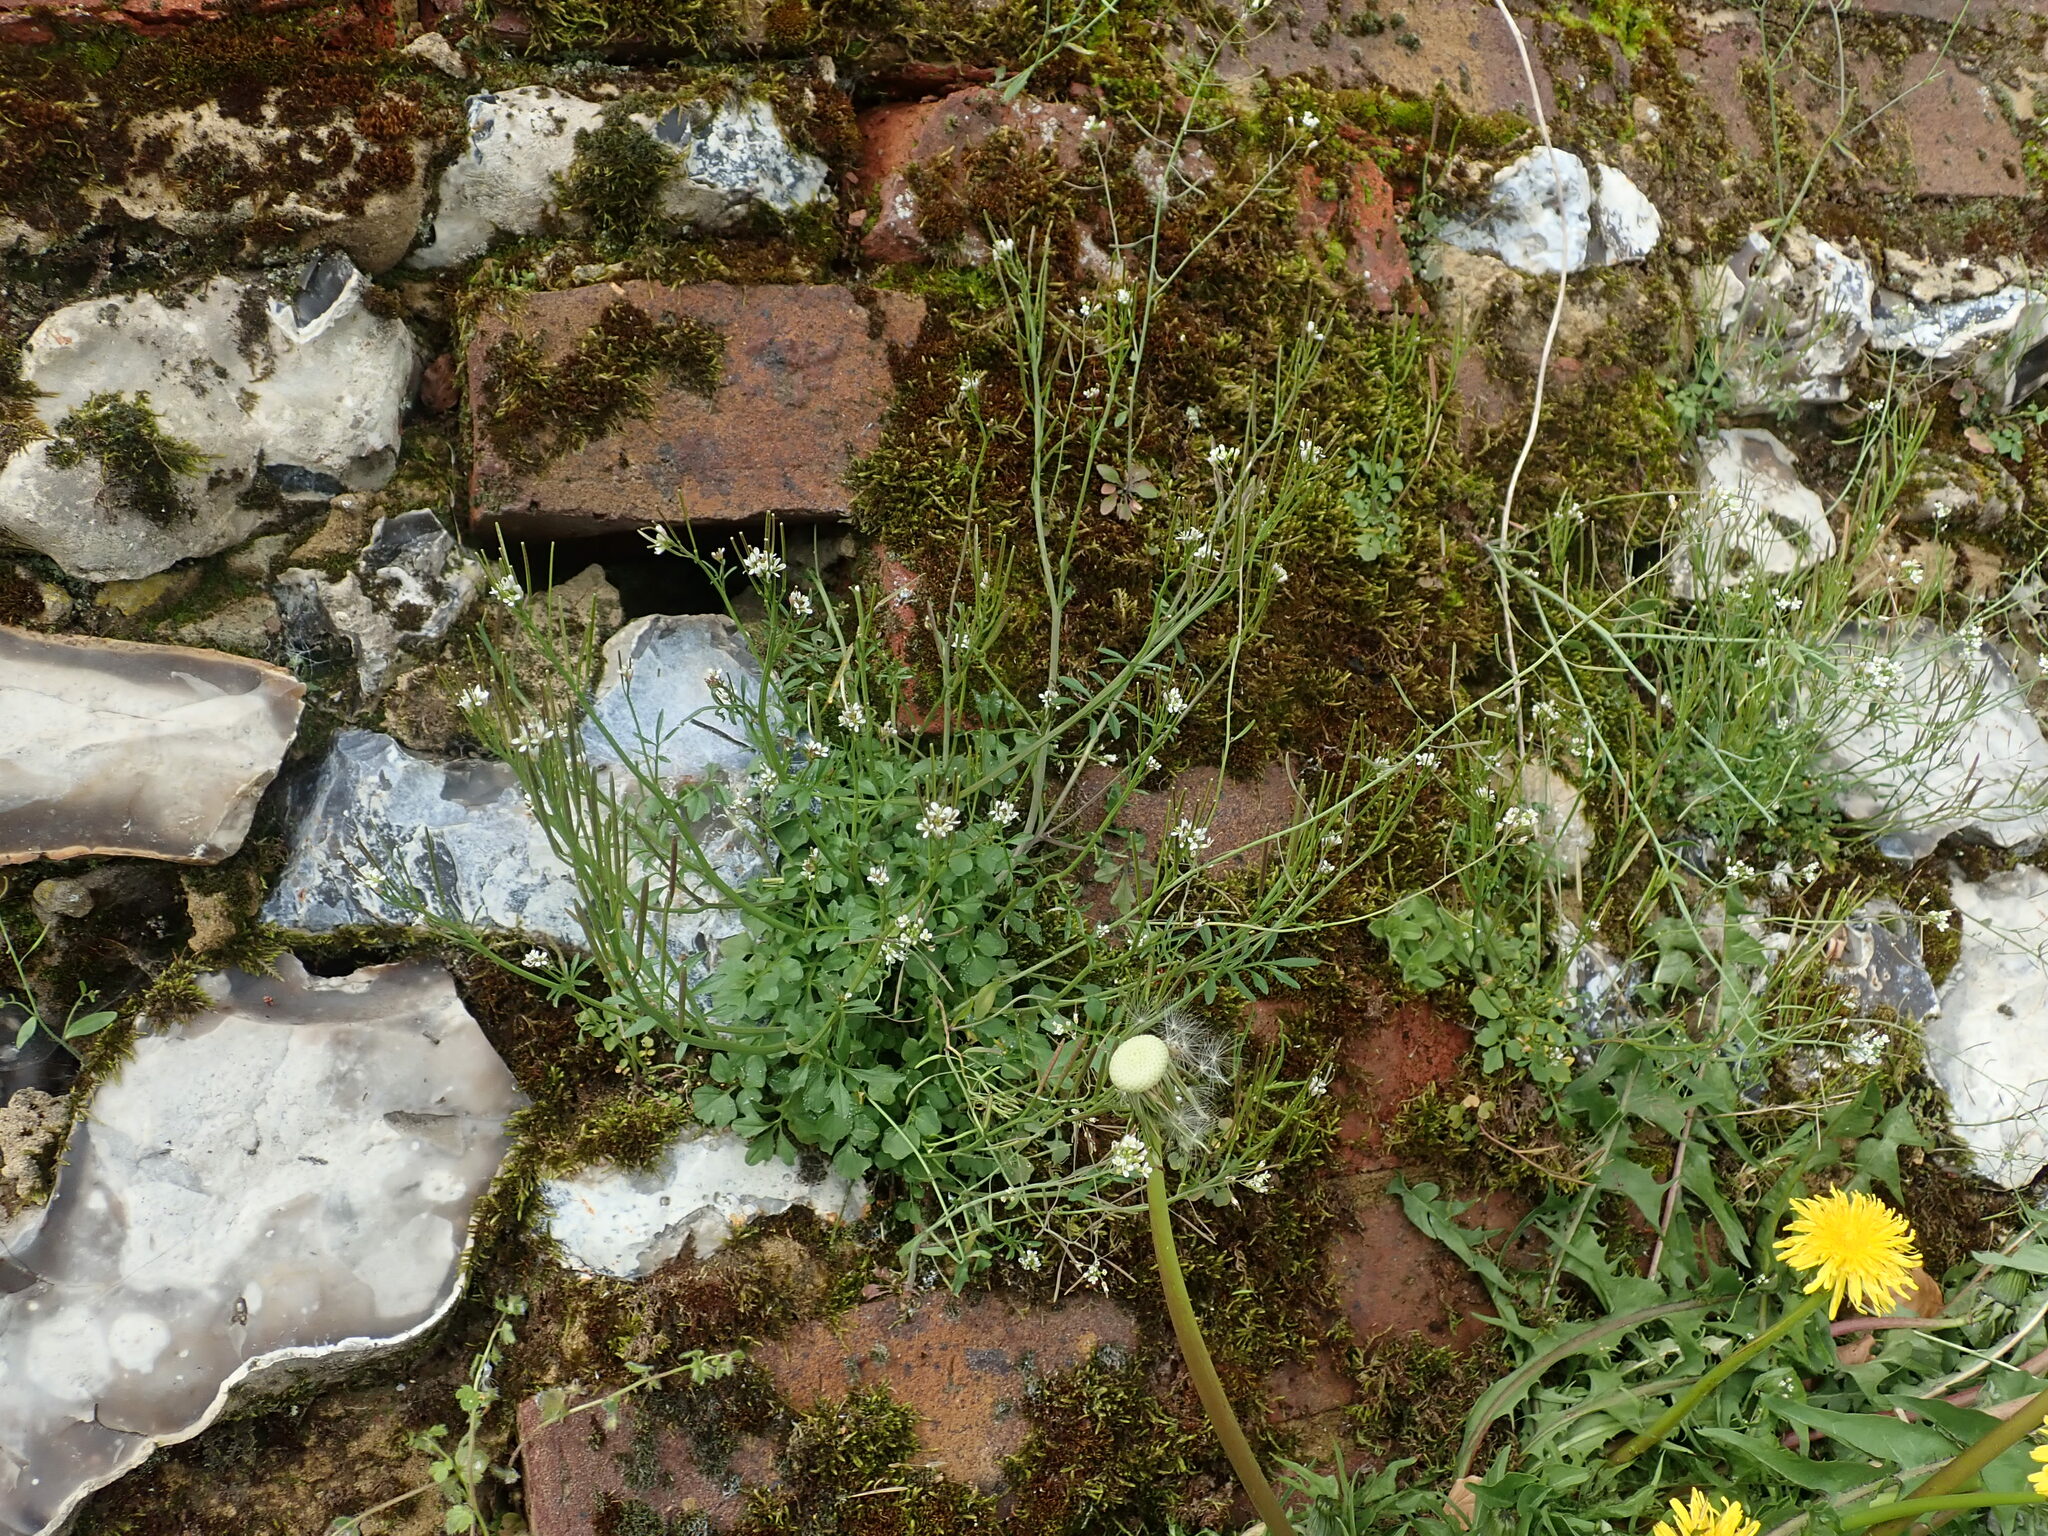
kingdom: Plantae
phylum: Tracheophyta
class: Magnoliopsida
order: Brassicales
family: Brassicaceae
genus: Cardamine
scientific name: Cardamine hirsuta
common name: Hairy bittercress
